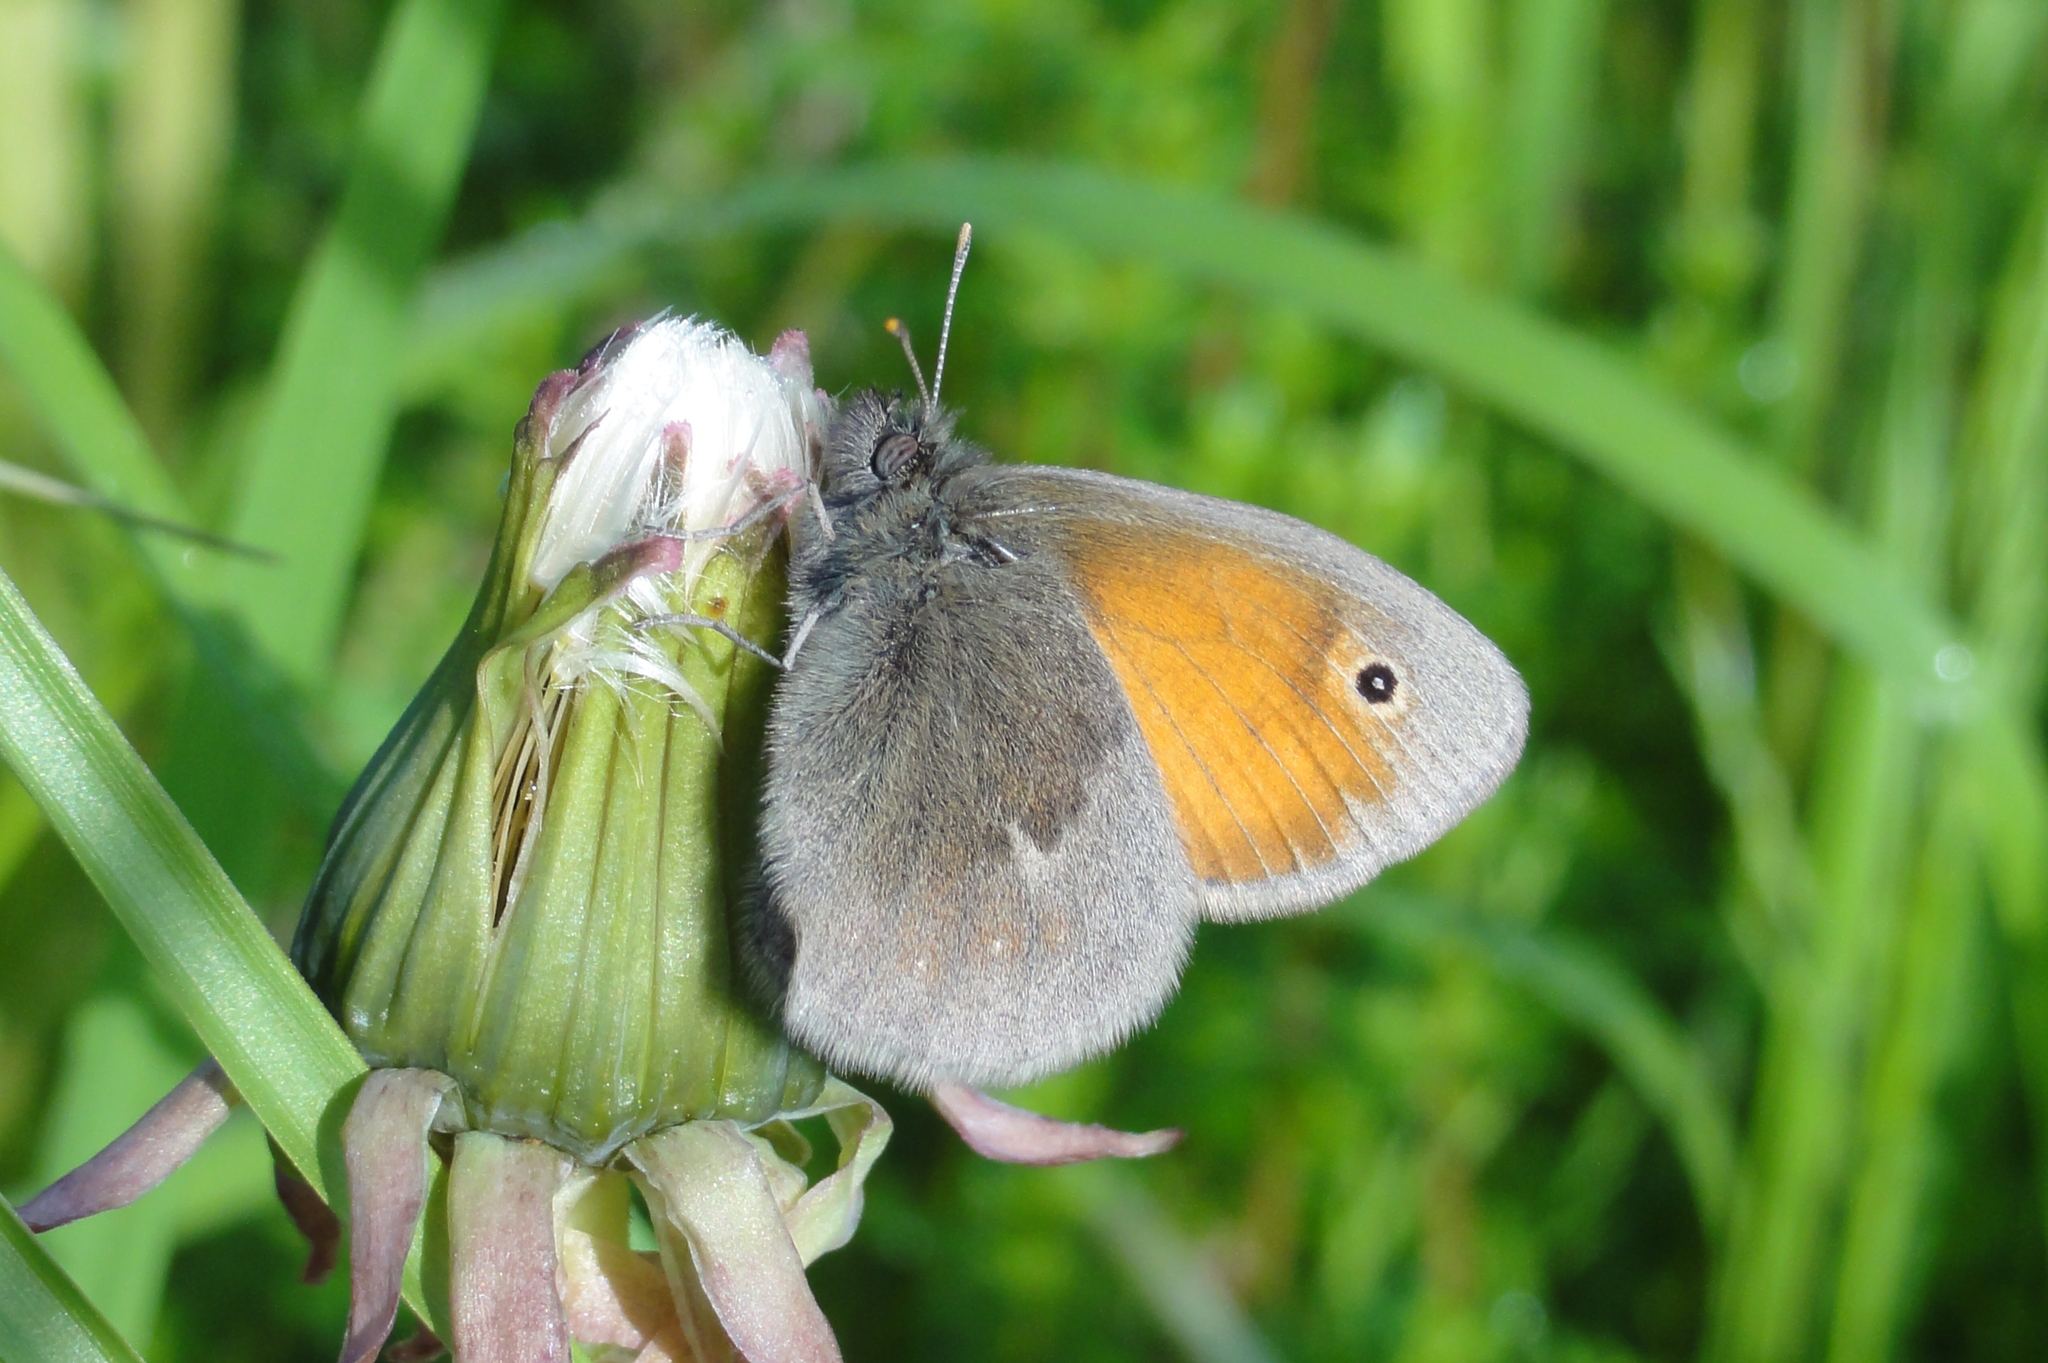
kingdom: Animalia
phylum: Arthropoda
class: Insecta
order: Lepidoptera
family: Nymphalidae
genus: Coenonympha
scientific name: Coenonympha pamphilus
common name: Small heath
